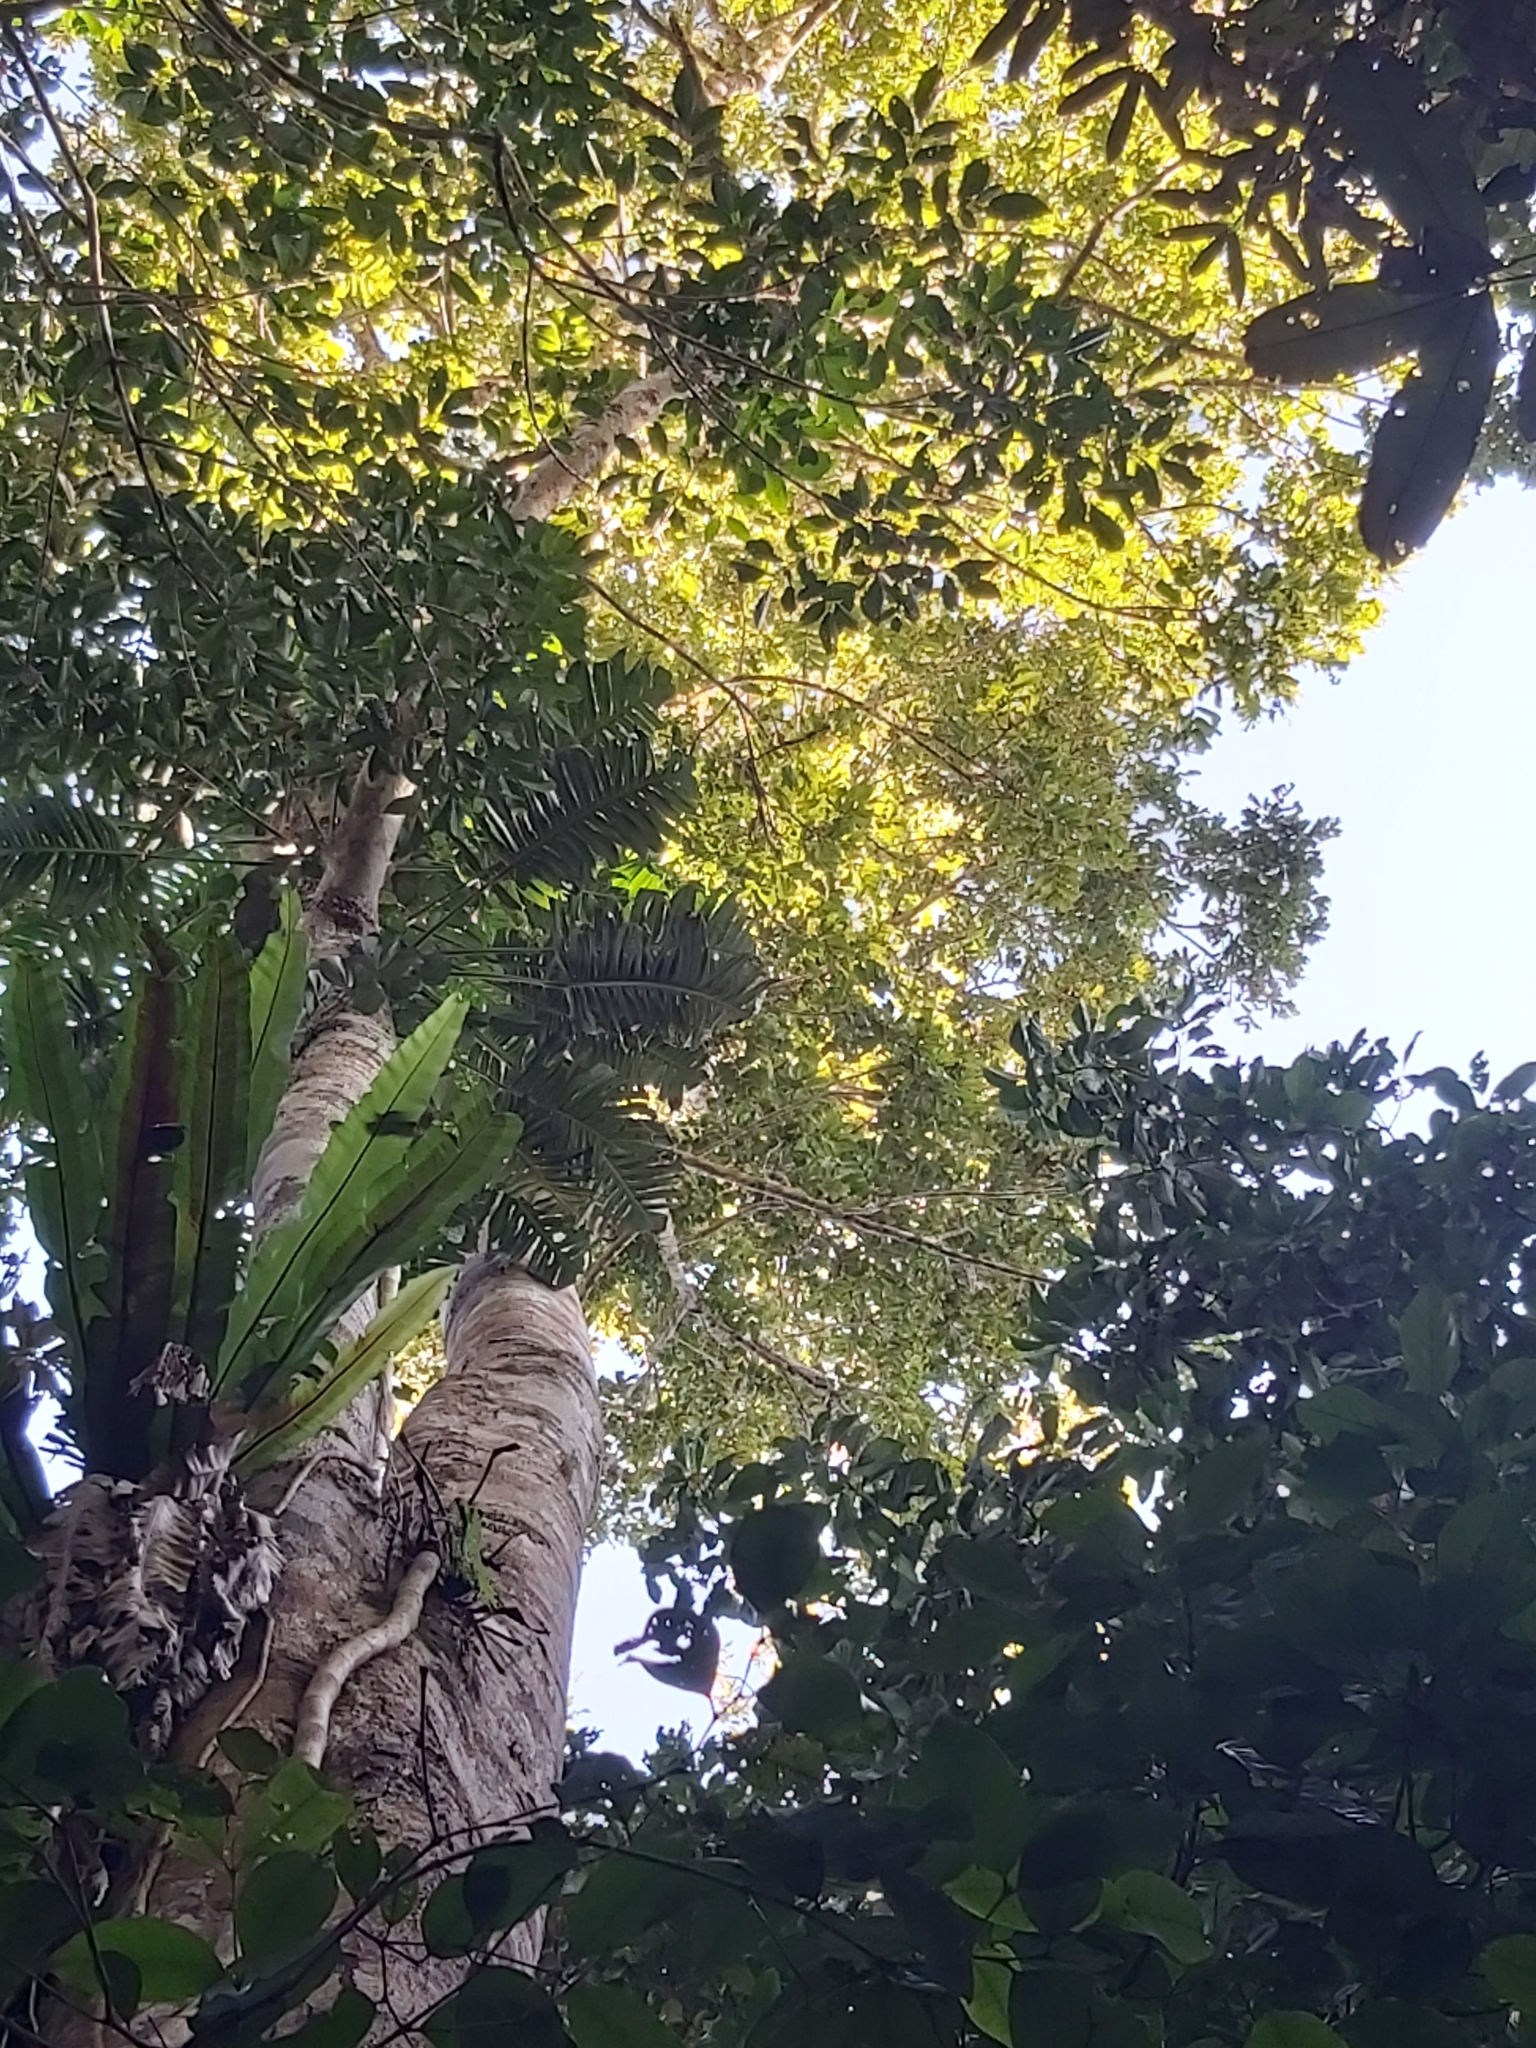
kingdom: Plantae
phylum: Tracheophyta
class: Magnoliopsida
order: Sapindales
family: Anacardiaceae
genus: Blepharocarya
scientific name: Blepharocarya involucrigera
